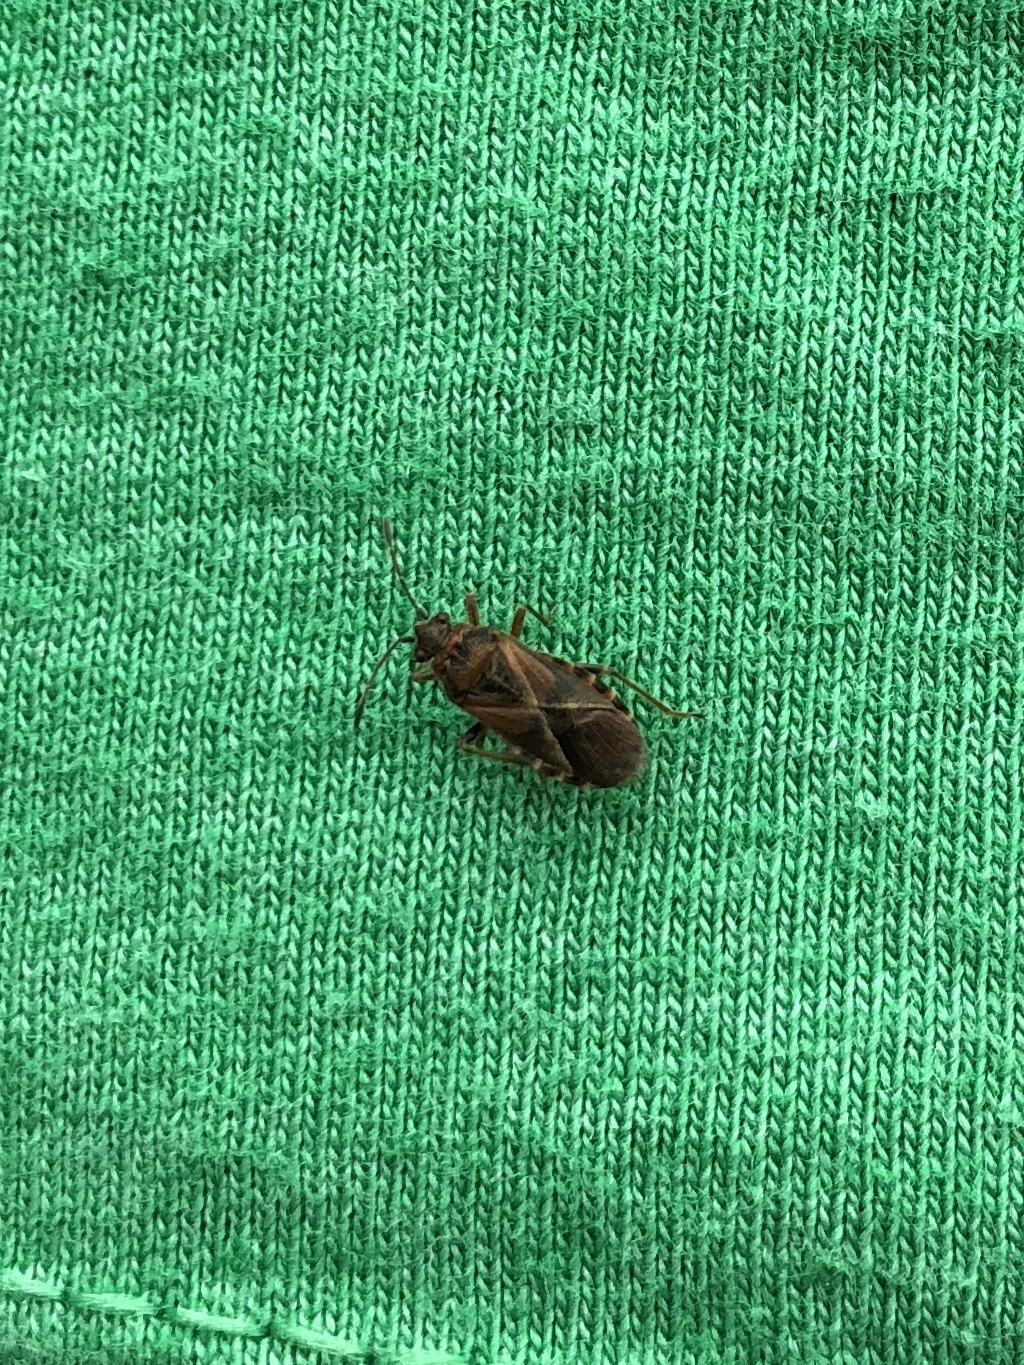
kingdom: Animalia
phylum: Arthropoda
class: Insecta
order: Hemiptera
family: Lygaeidae
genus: Arocatus
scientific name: Arocatus melanocephalus
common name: Lygaeid bug
